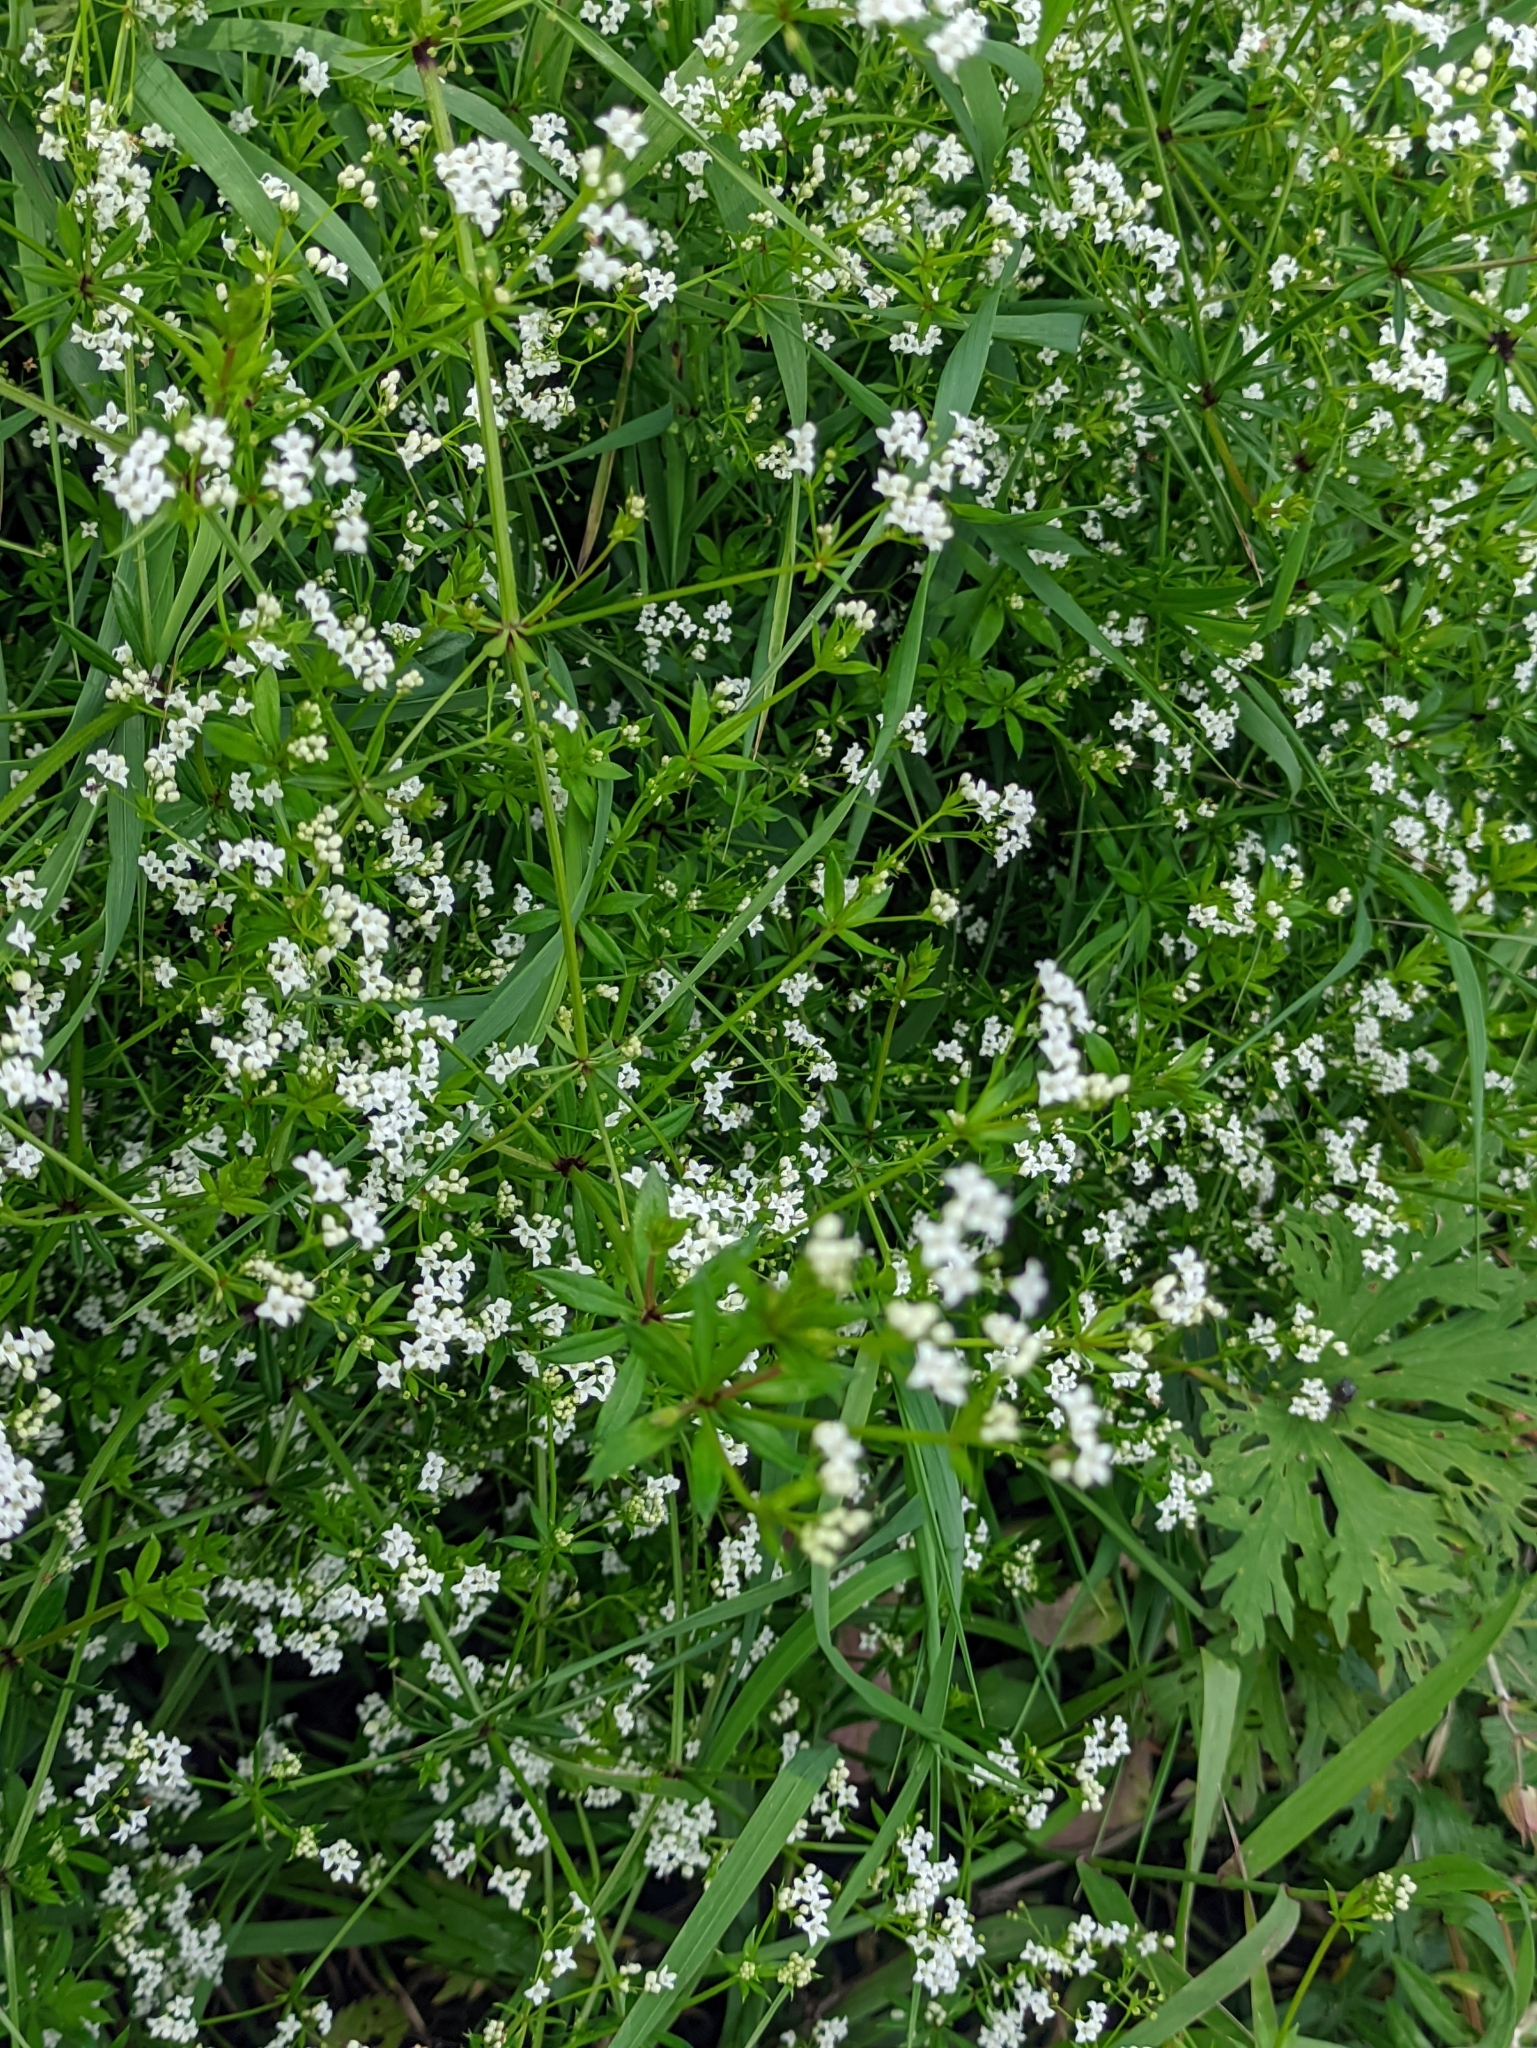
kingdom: Plantae
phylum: Tracheophyta
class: Magnoliopsida
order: Gentianales
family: Rubiaceae
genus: Galium
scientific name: Galium rivale
